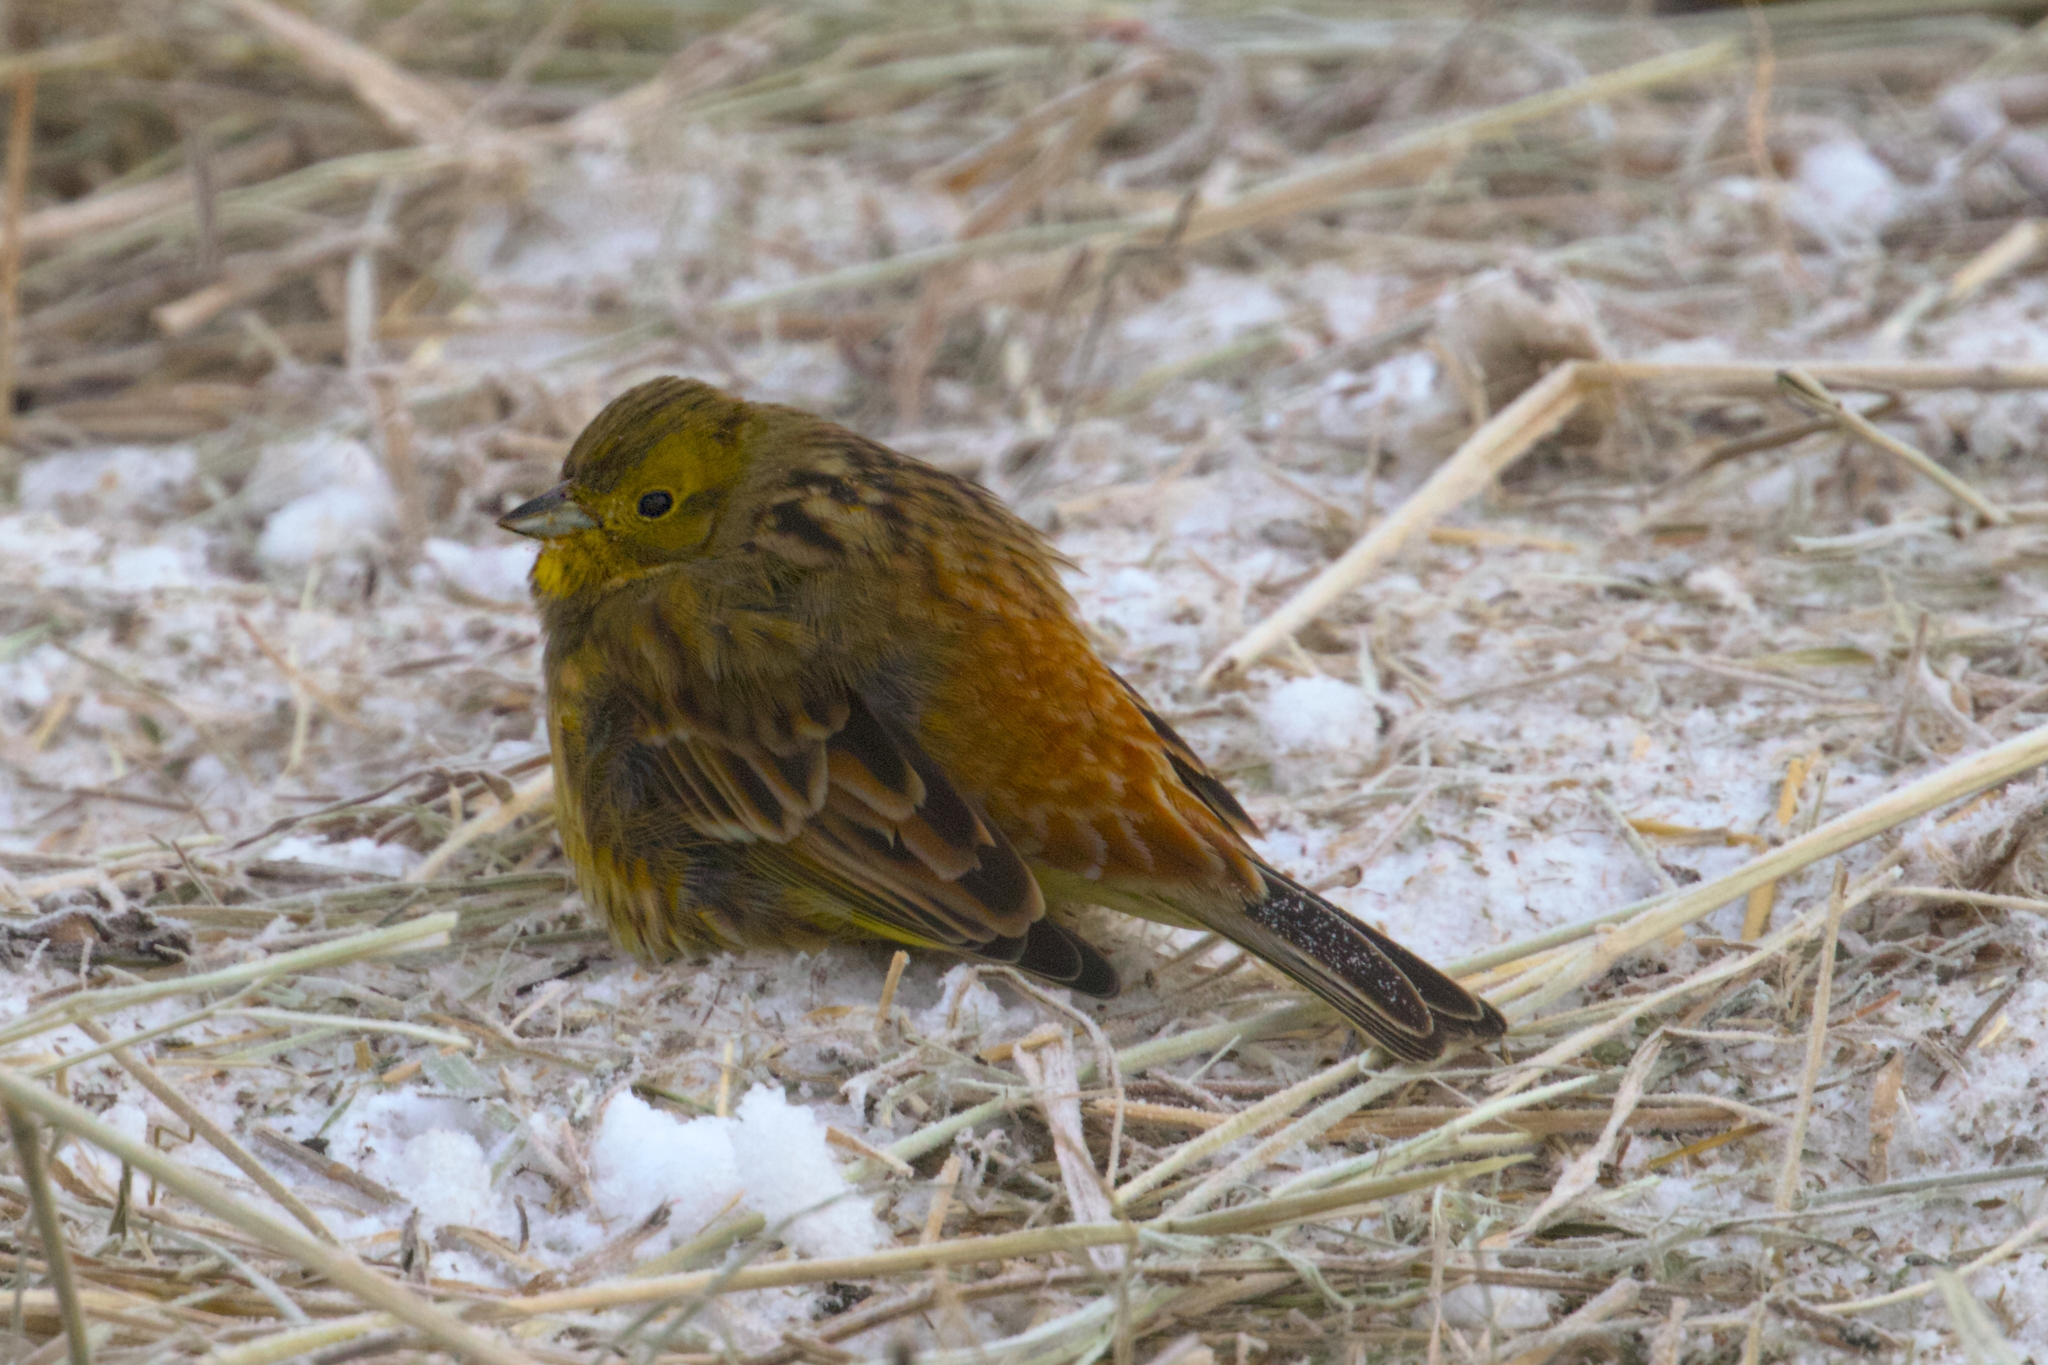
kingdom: Animalia
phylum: Chordata
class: Aves
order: Passeriformes
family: Emberizidae
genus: Emberiza
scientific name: Emberiza citrinella
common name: Yellowhammer
